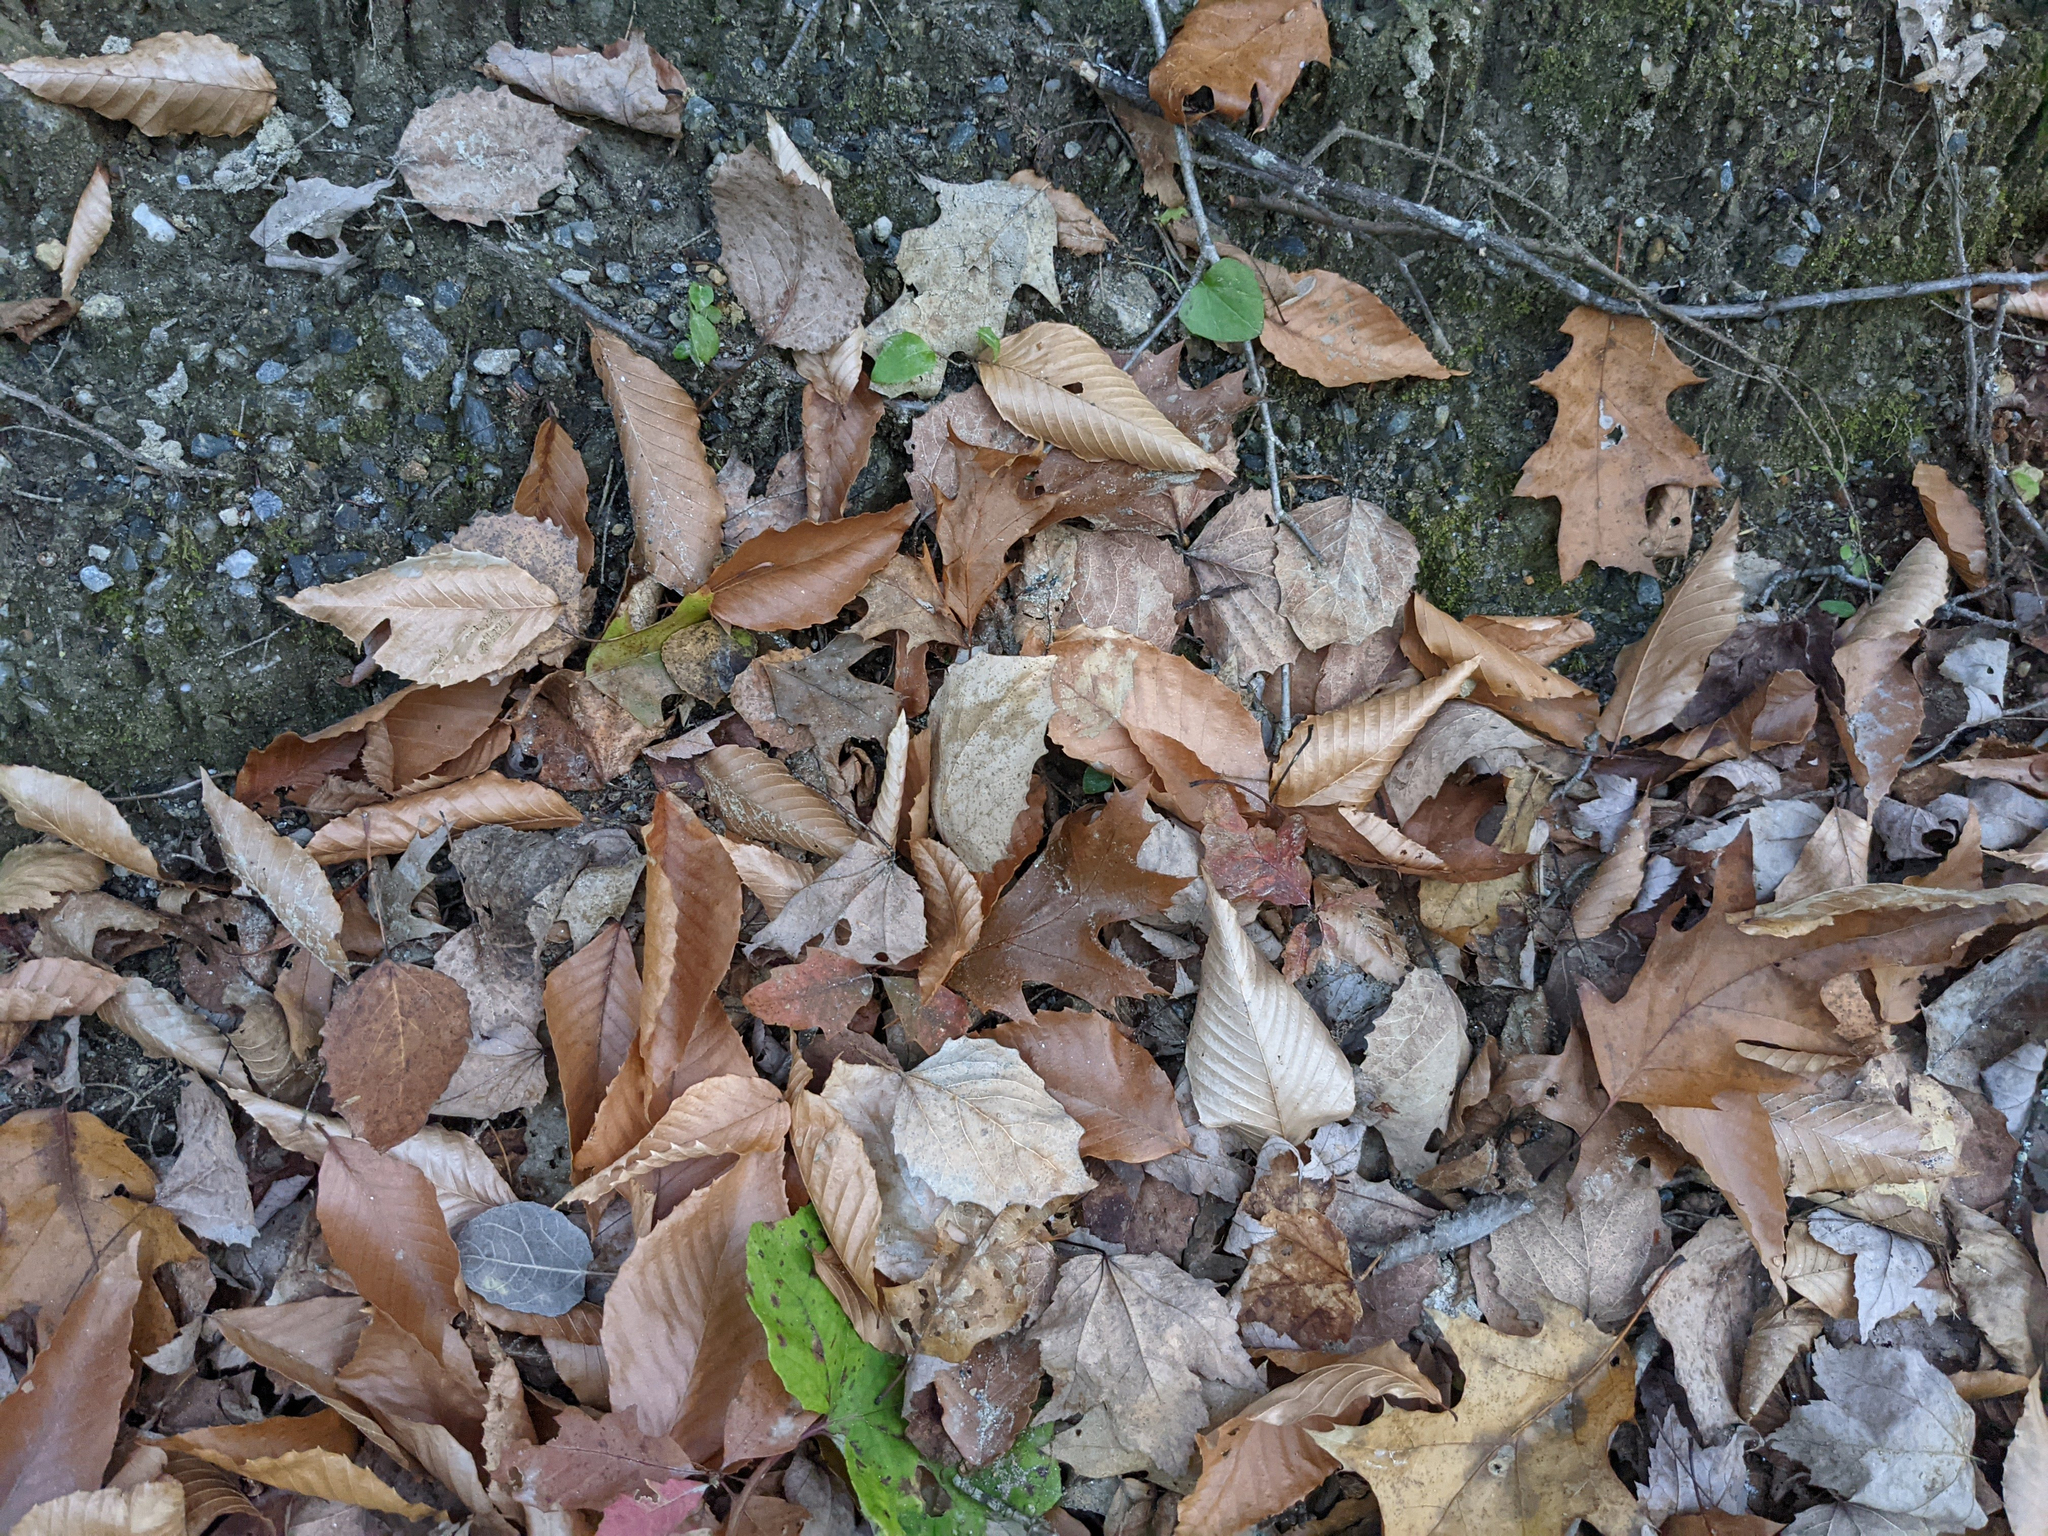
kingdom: Plantae
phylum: Tracheophyta
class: Magnoliopsida
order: Malpighiales
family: Salicaceae
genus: Populus
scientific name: Populus grandidentata
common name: Bigtooth aspen
